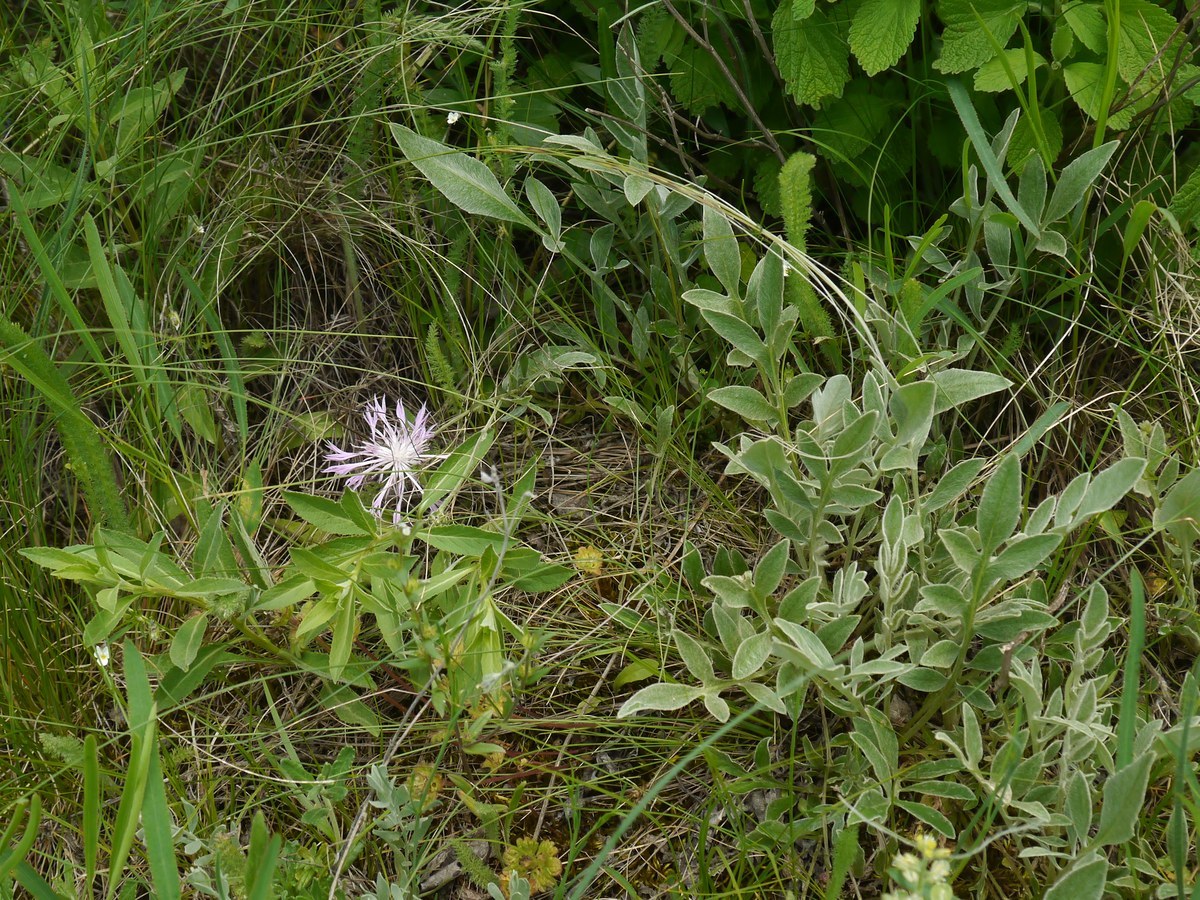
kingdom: Plantae
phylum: Tracheophyta
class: Magnoliopsida
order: Asterales
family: Asteraceae
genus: Psephellus
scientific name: Psephellus marschallianus
